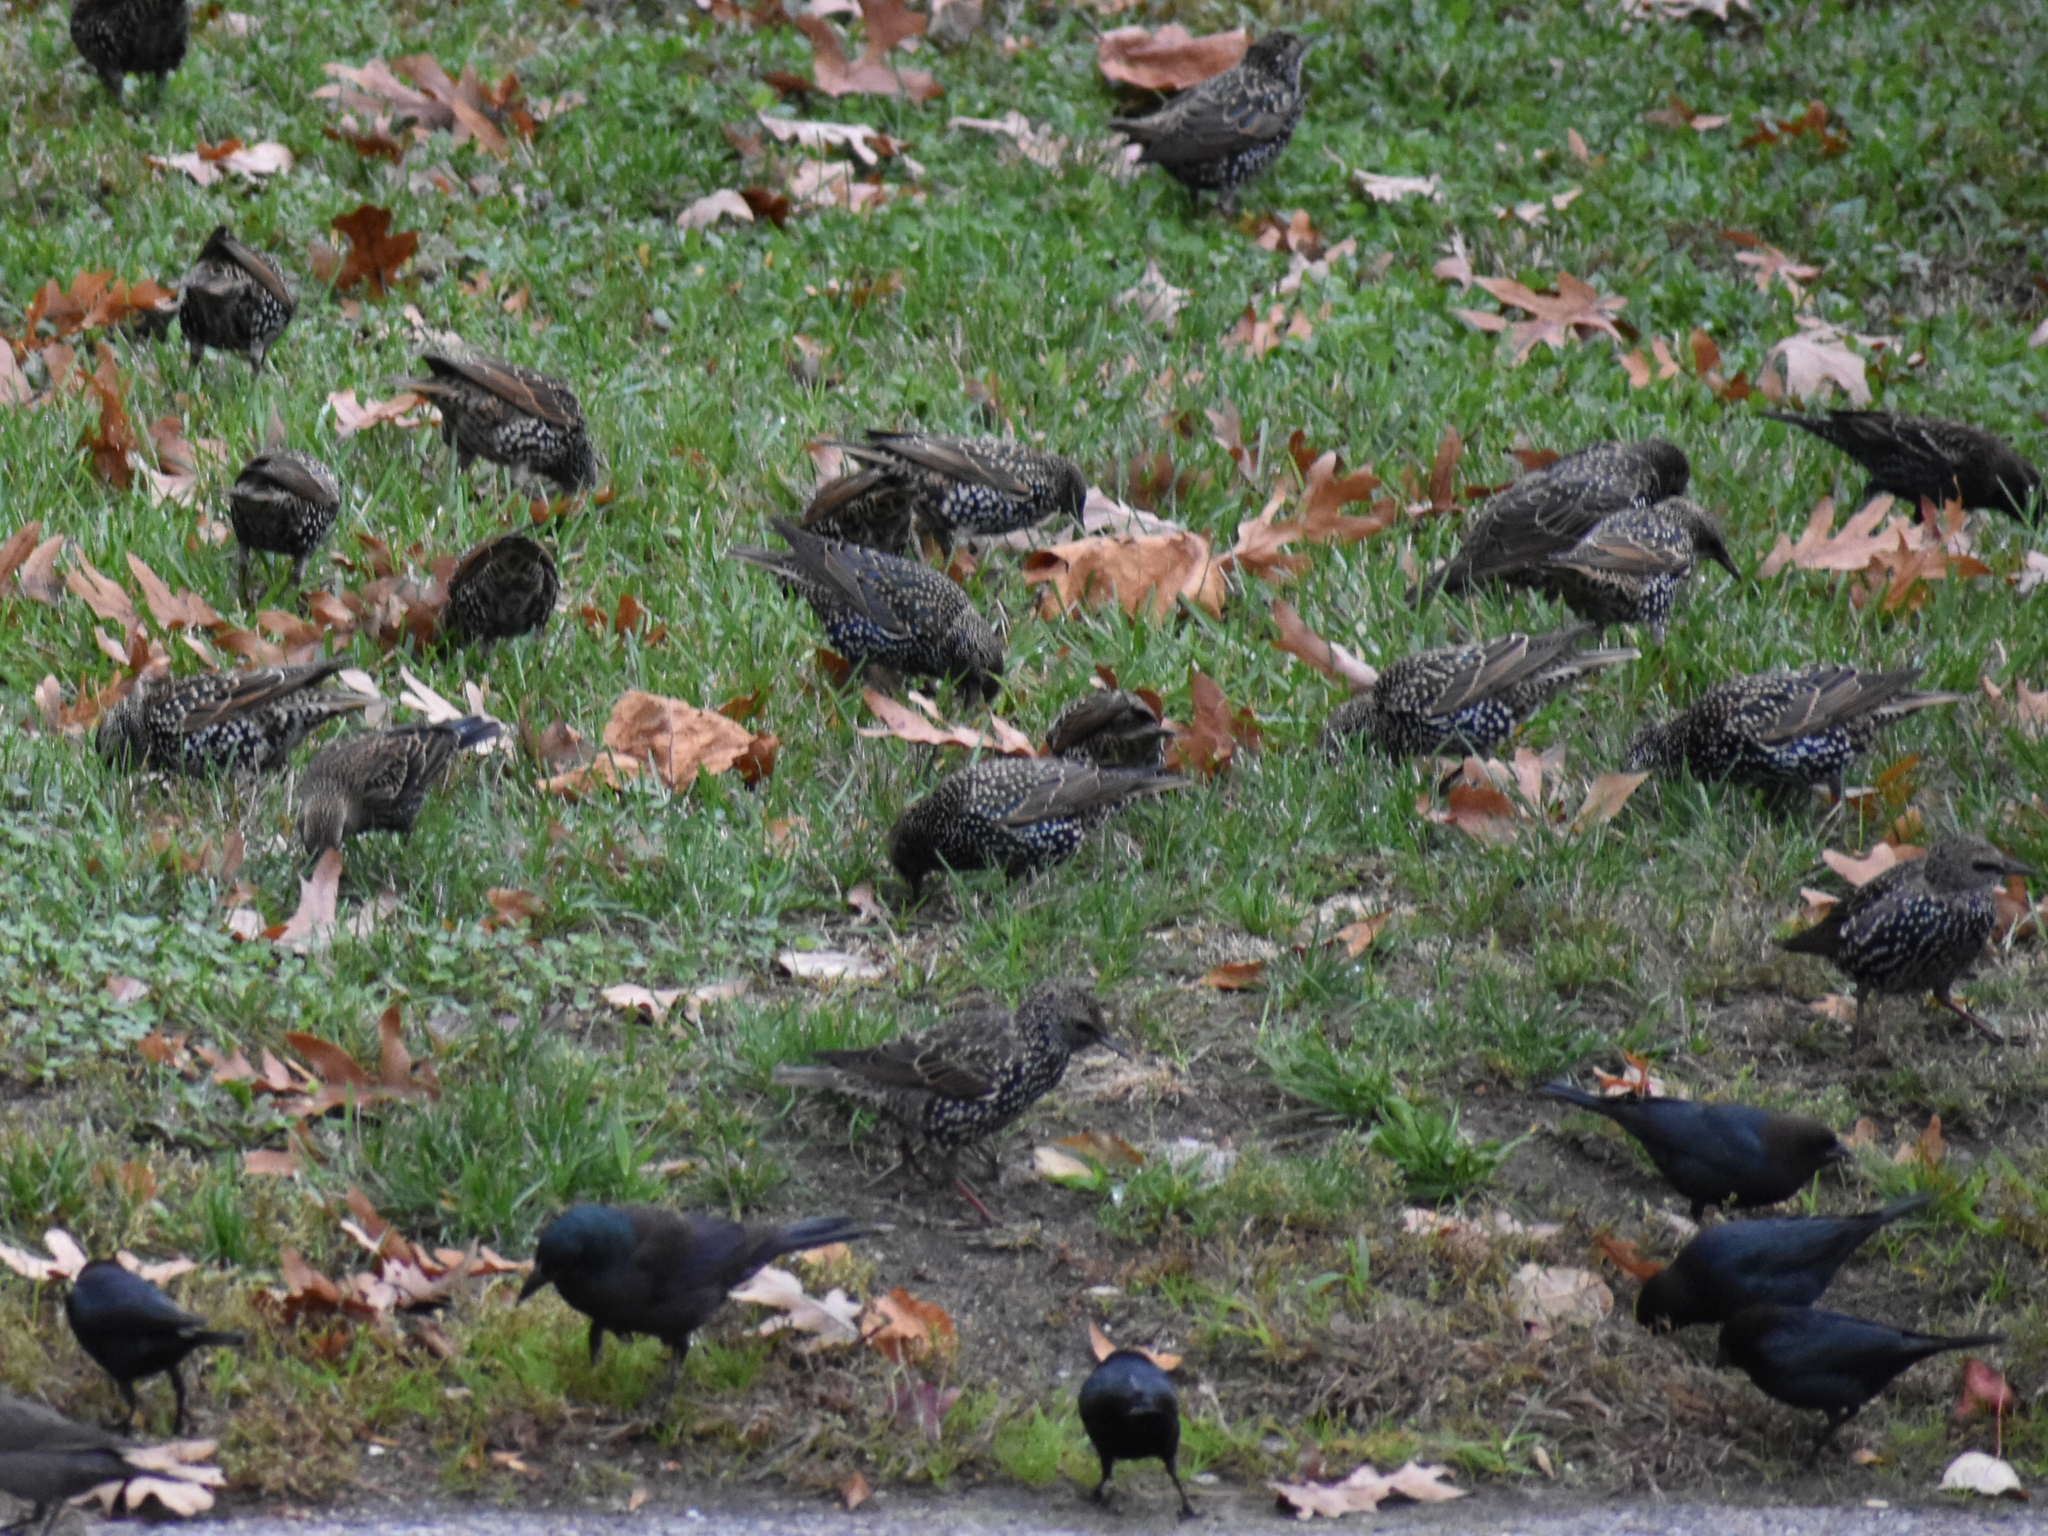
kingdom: Animalia
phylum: Chordata
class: Aves
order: Passeriformes
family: Sturnidae
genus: Sturnus
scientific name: Sturnus vulgaris
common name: Common starling
